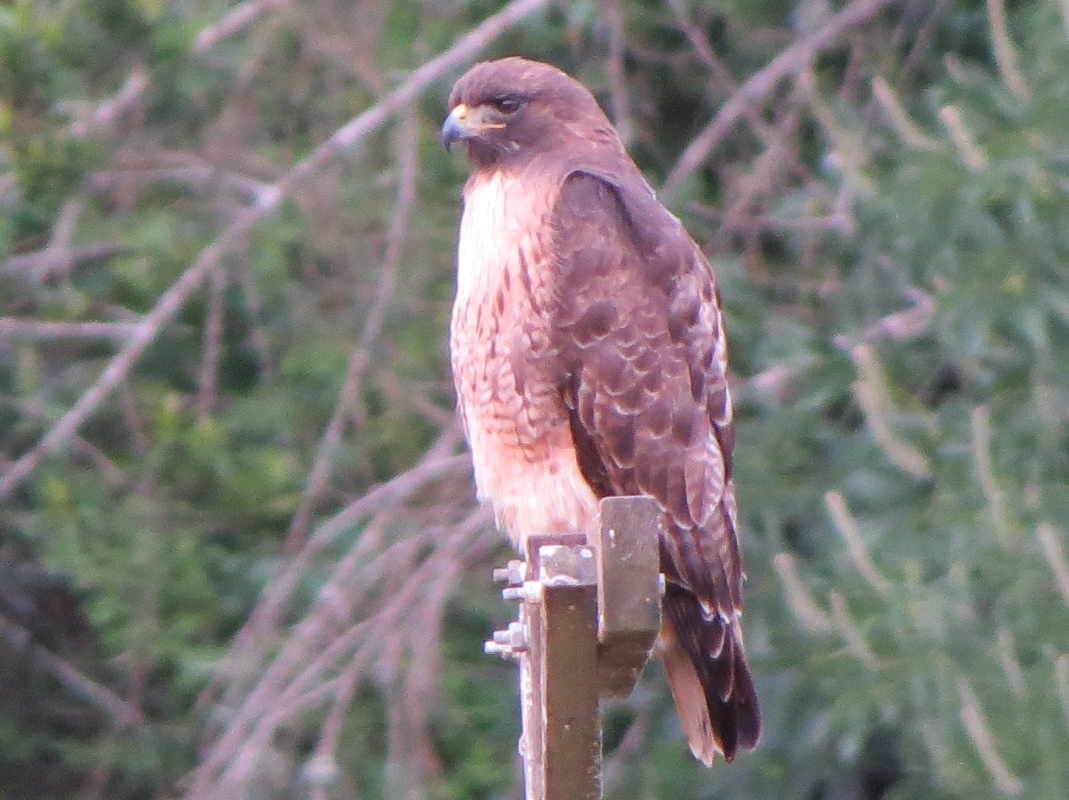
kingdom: Animalia
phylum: Chordata
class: Aves
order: Accipitriformes
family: Accipitridae
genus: Buteo
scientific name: Buteo jamaicensis
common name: Red-tailed hawk
